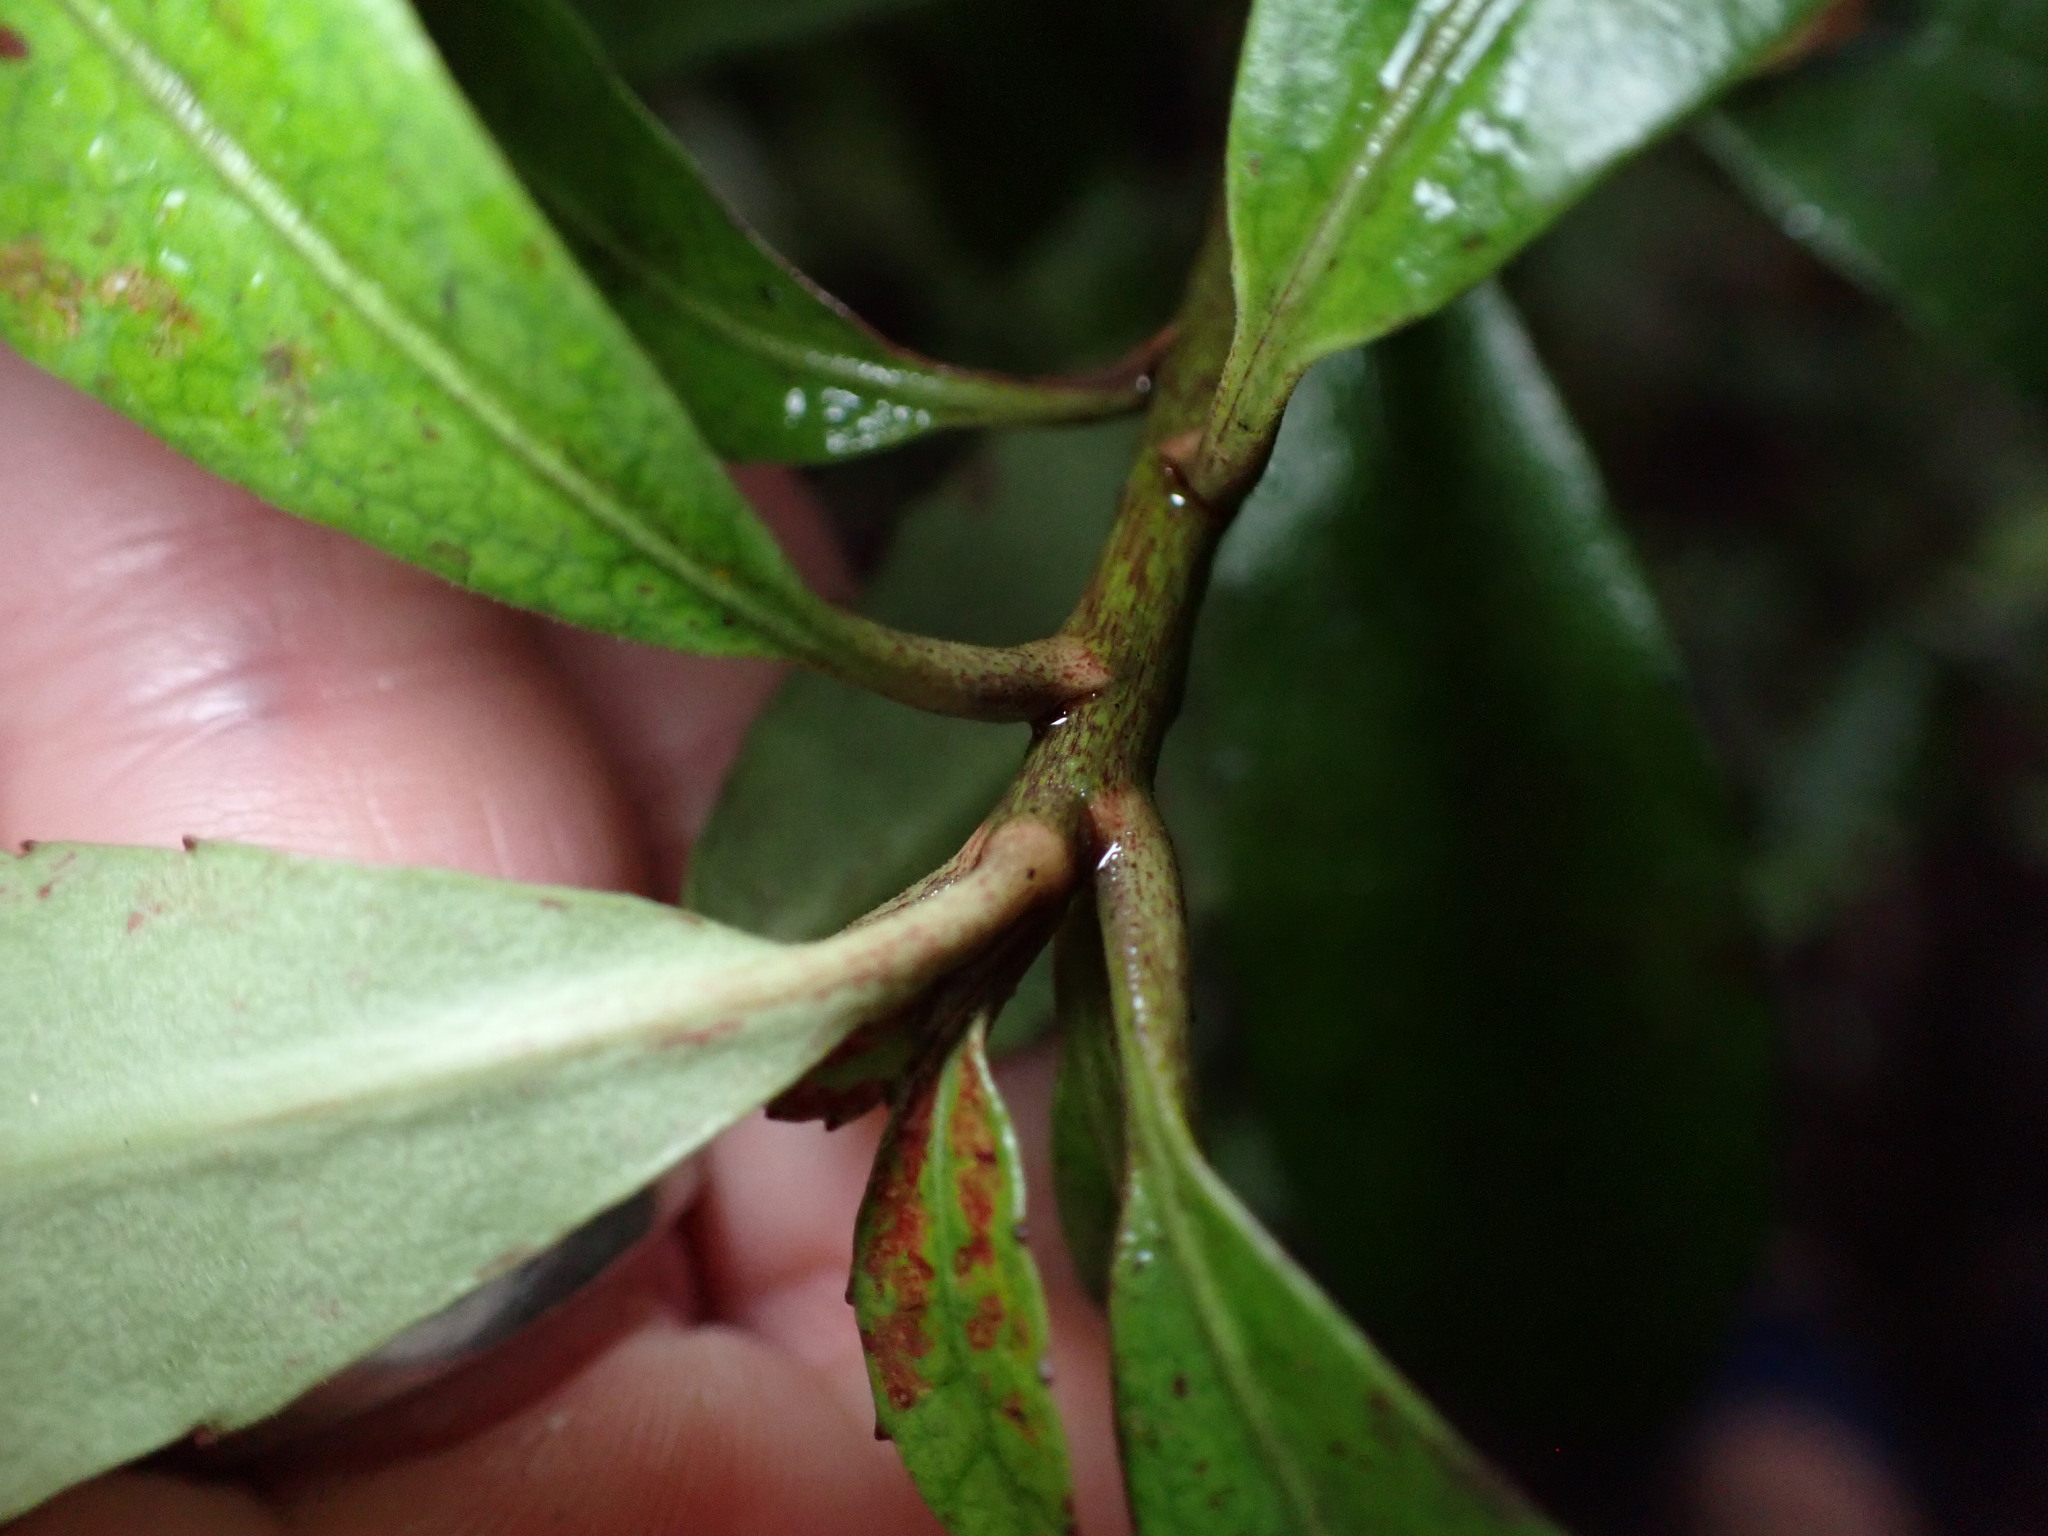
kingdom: Plantae
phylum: Tracheophyta
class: Magnoliopsida
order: Asterales
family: Alseuosmiaceae
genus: Alseuosmia
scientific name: Alseuosmia macrophylla
